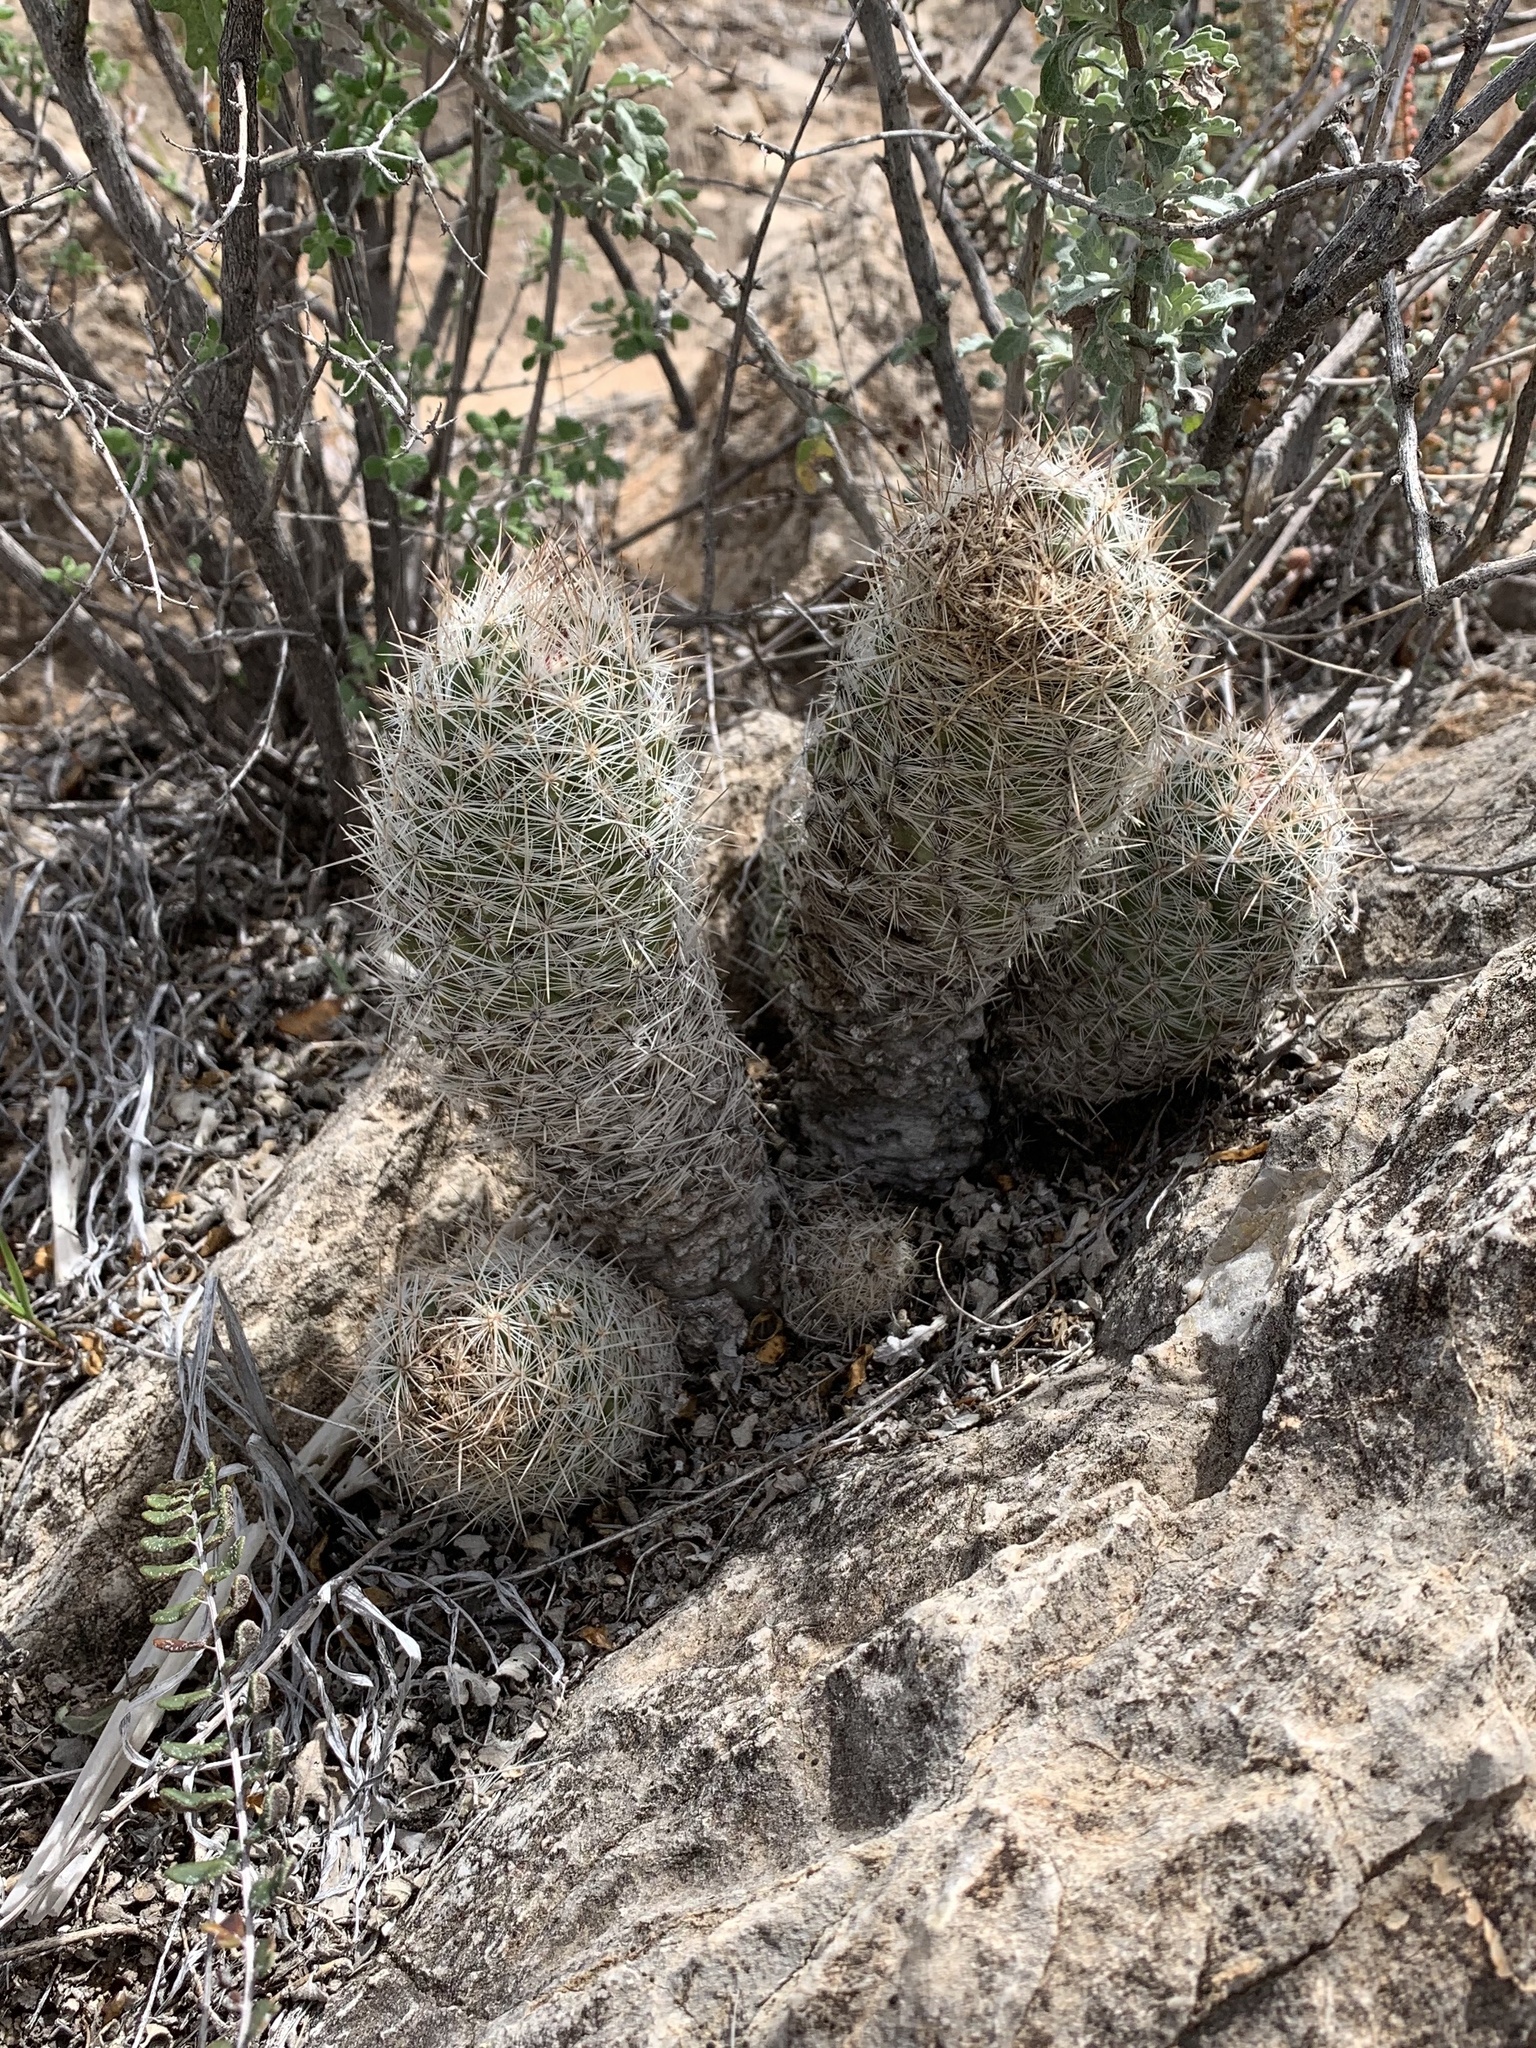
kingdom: Plantae
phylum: Tracheophyta
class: Magnoliopsida
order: Caryophyllales
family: Cactaceae
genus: Pelecyphora
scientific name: Pelecyphora tuberculosa
